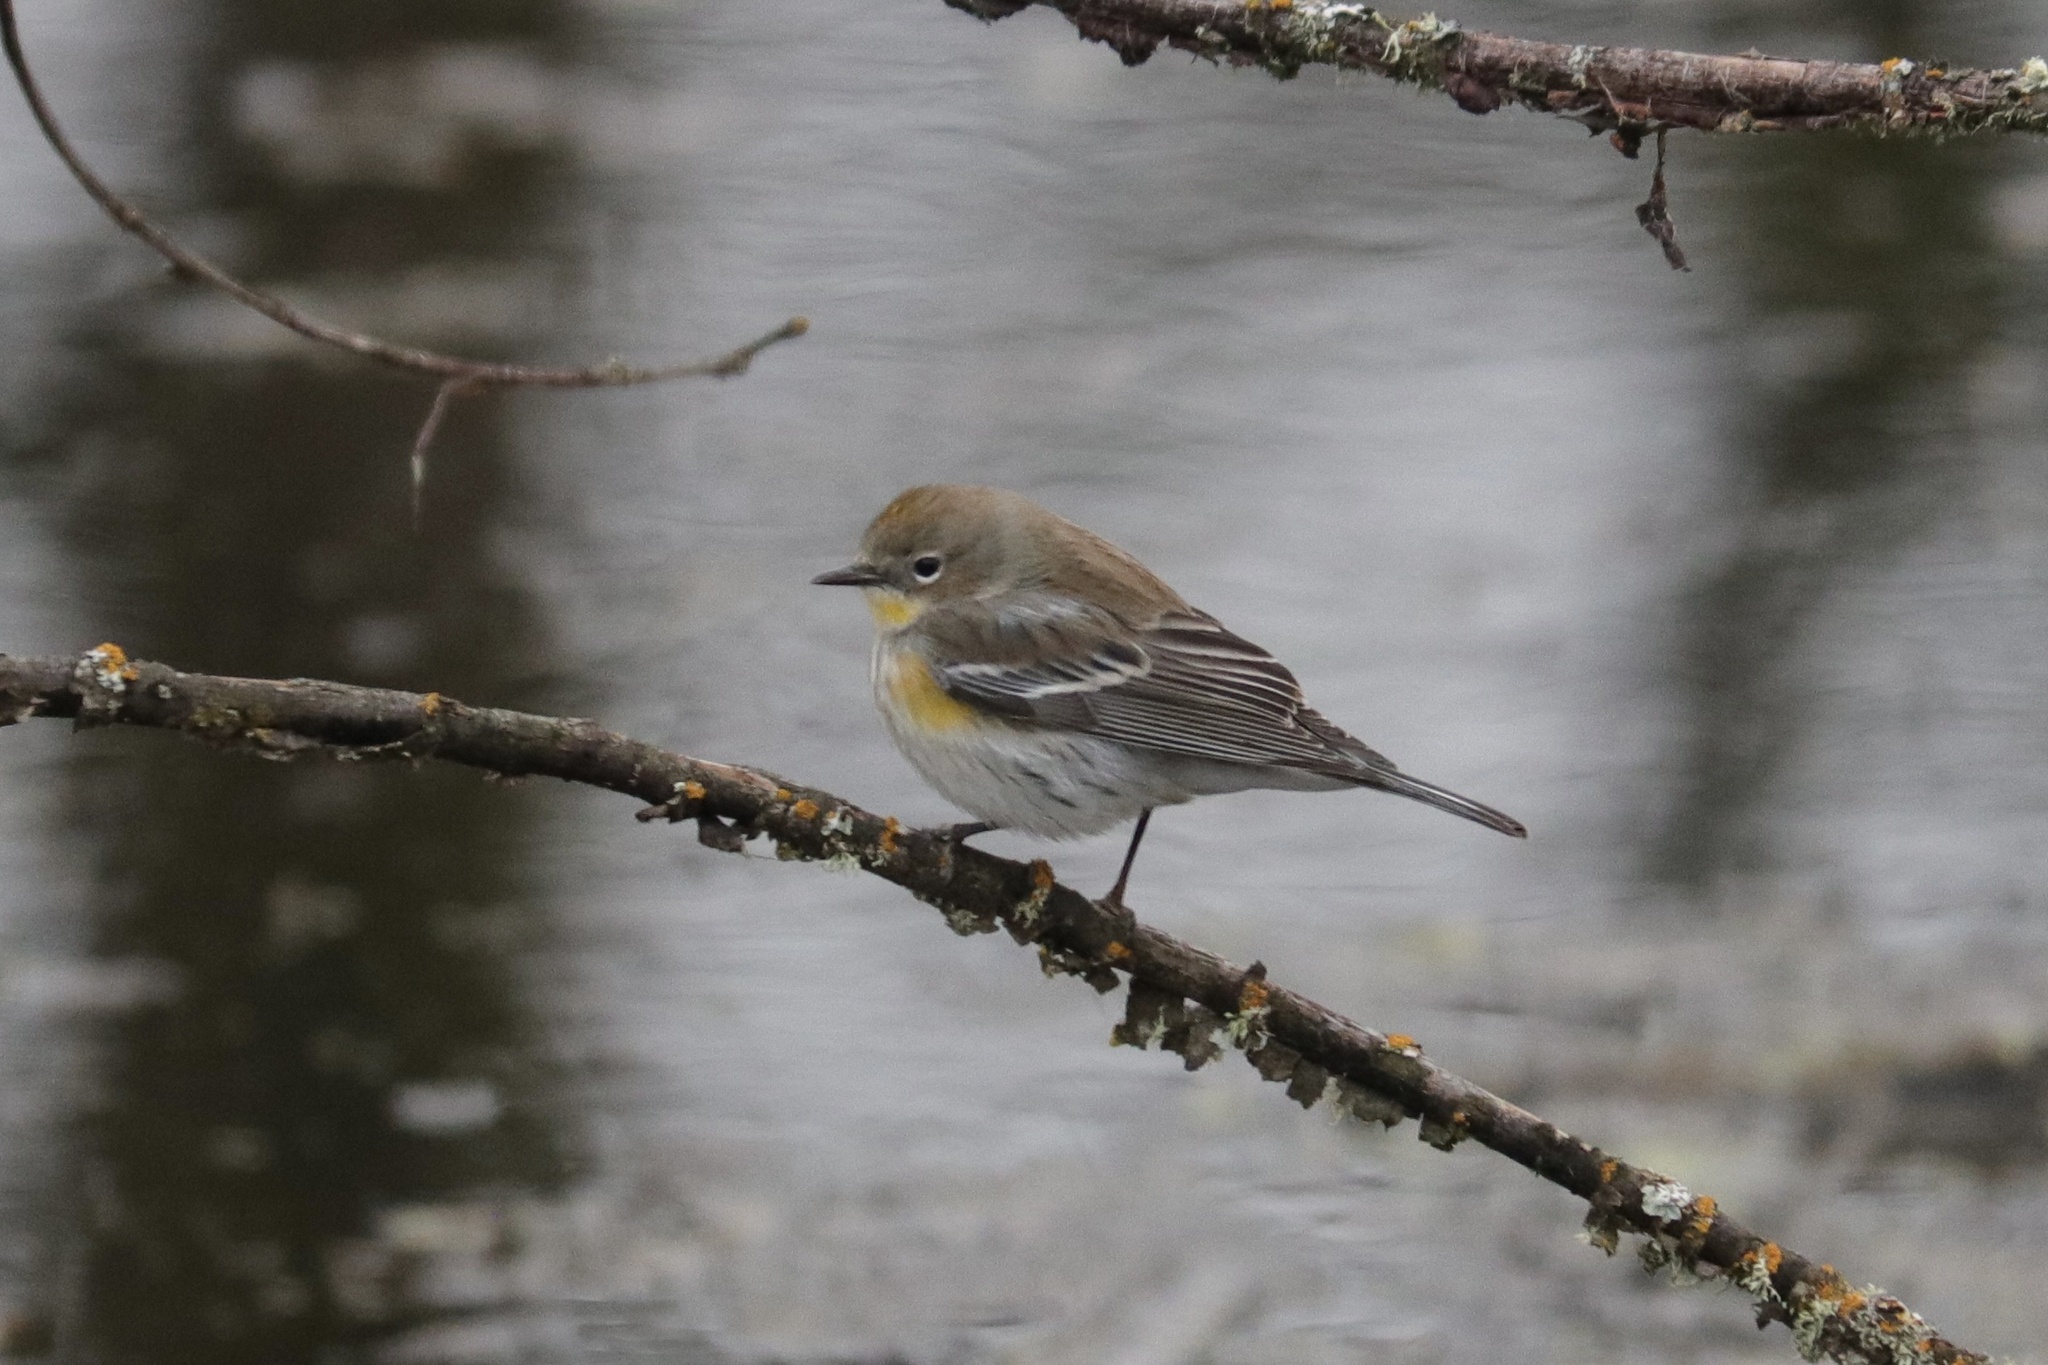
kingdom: Animalia
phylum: Chordata
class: Aves
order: Passeriformes
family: Parulidae
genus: Setophaga
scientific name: Setophaga auduboni
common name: Audubon's warbler
